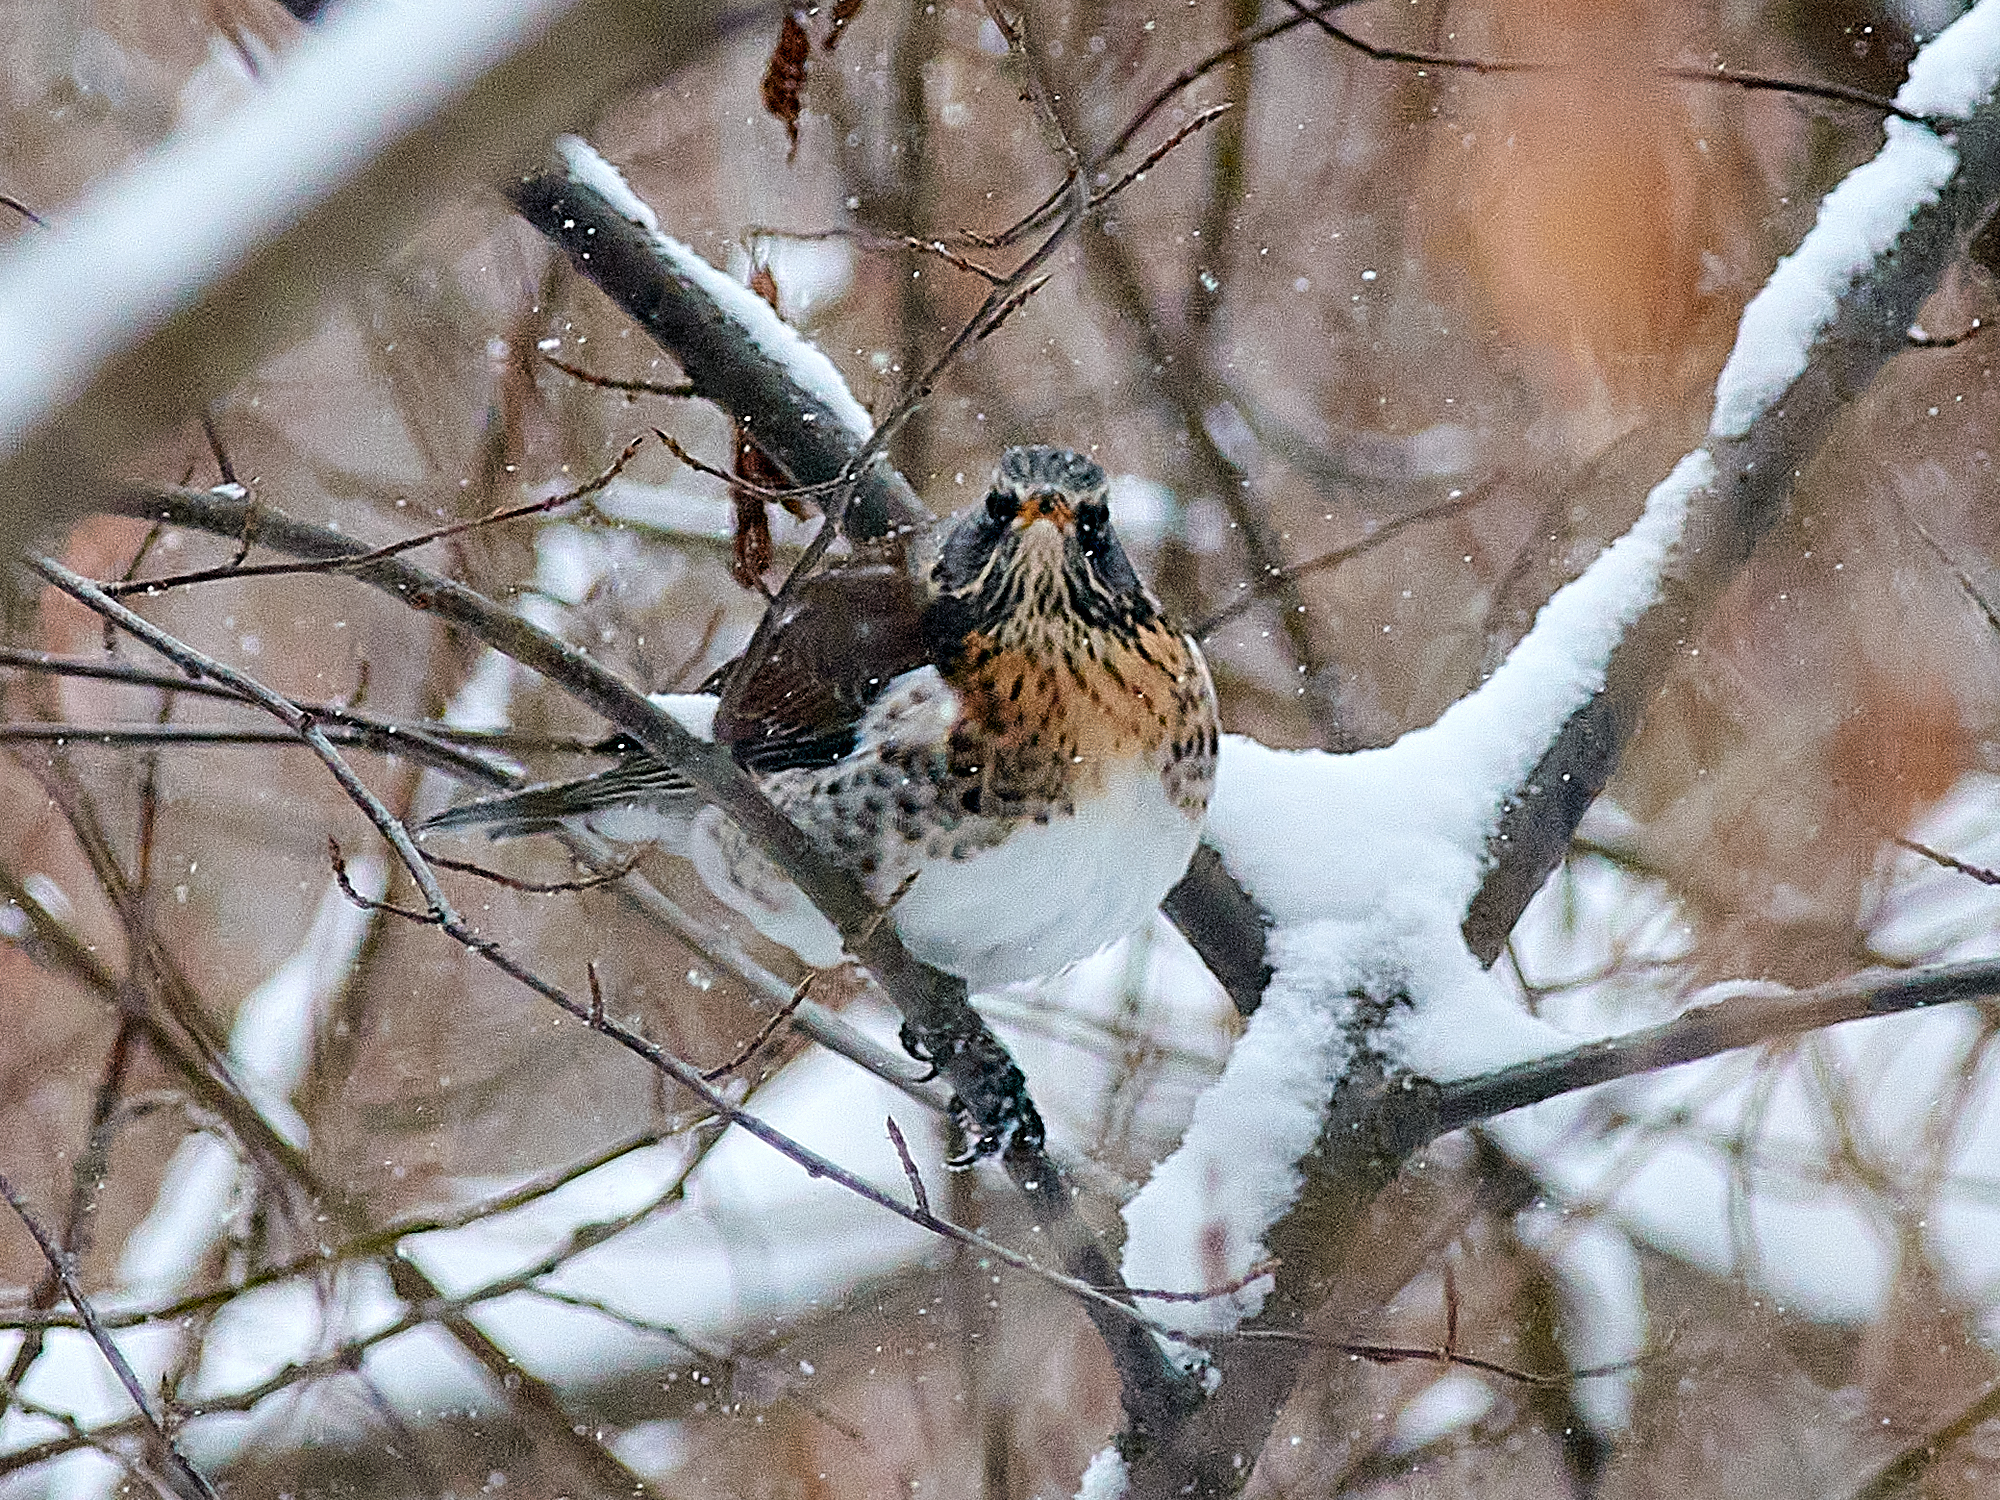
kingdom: Animalia
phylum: Chordata
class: Aves
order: Passeriformes
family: Turdidae
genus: Turdus
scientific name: Turdus pilaris
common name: Fieldfare
